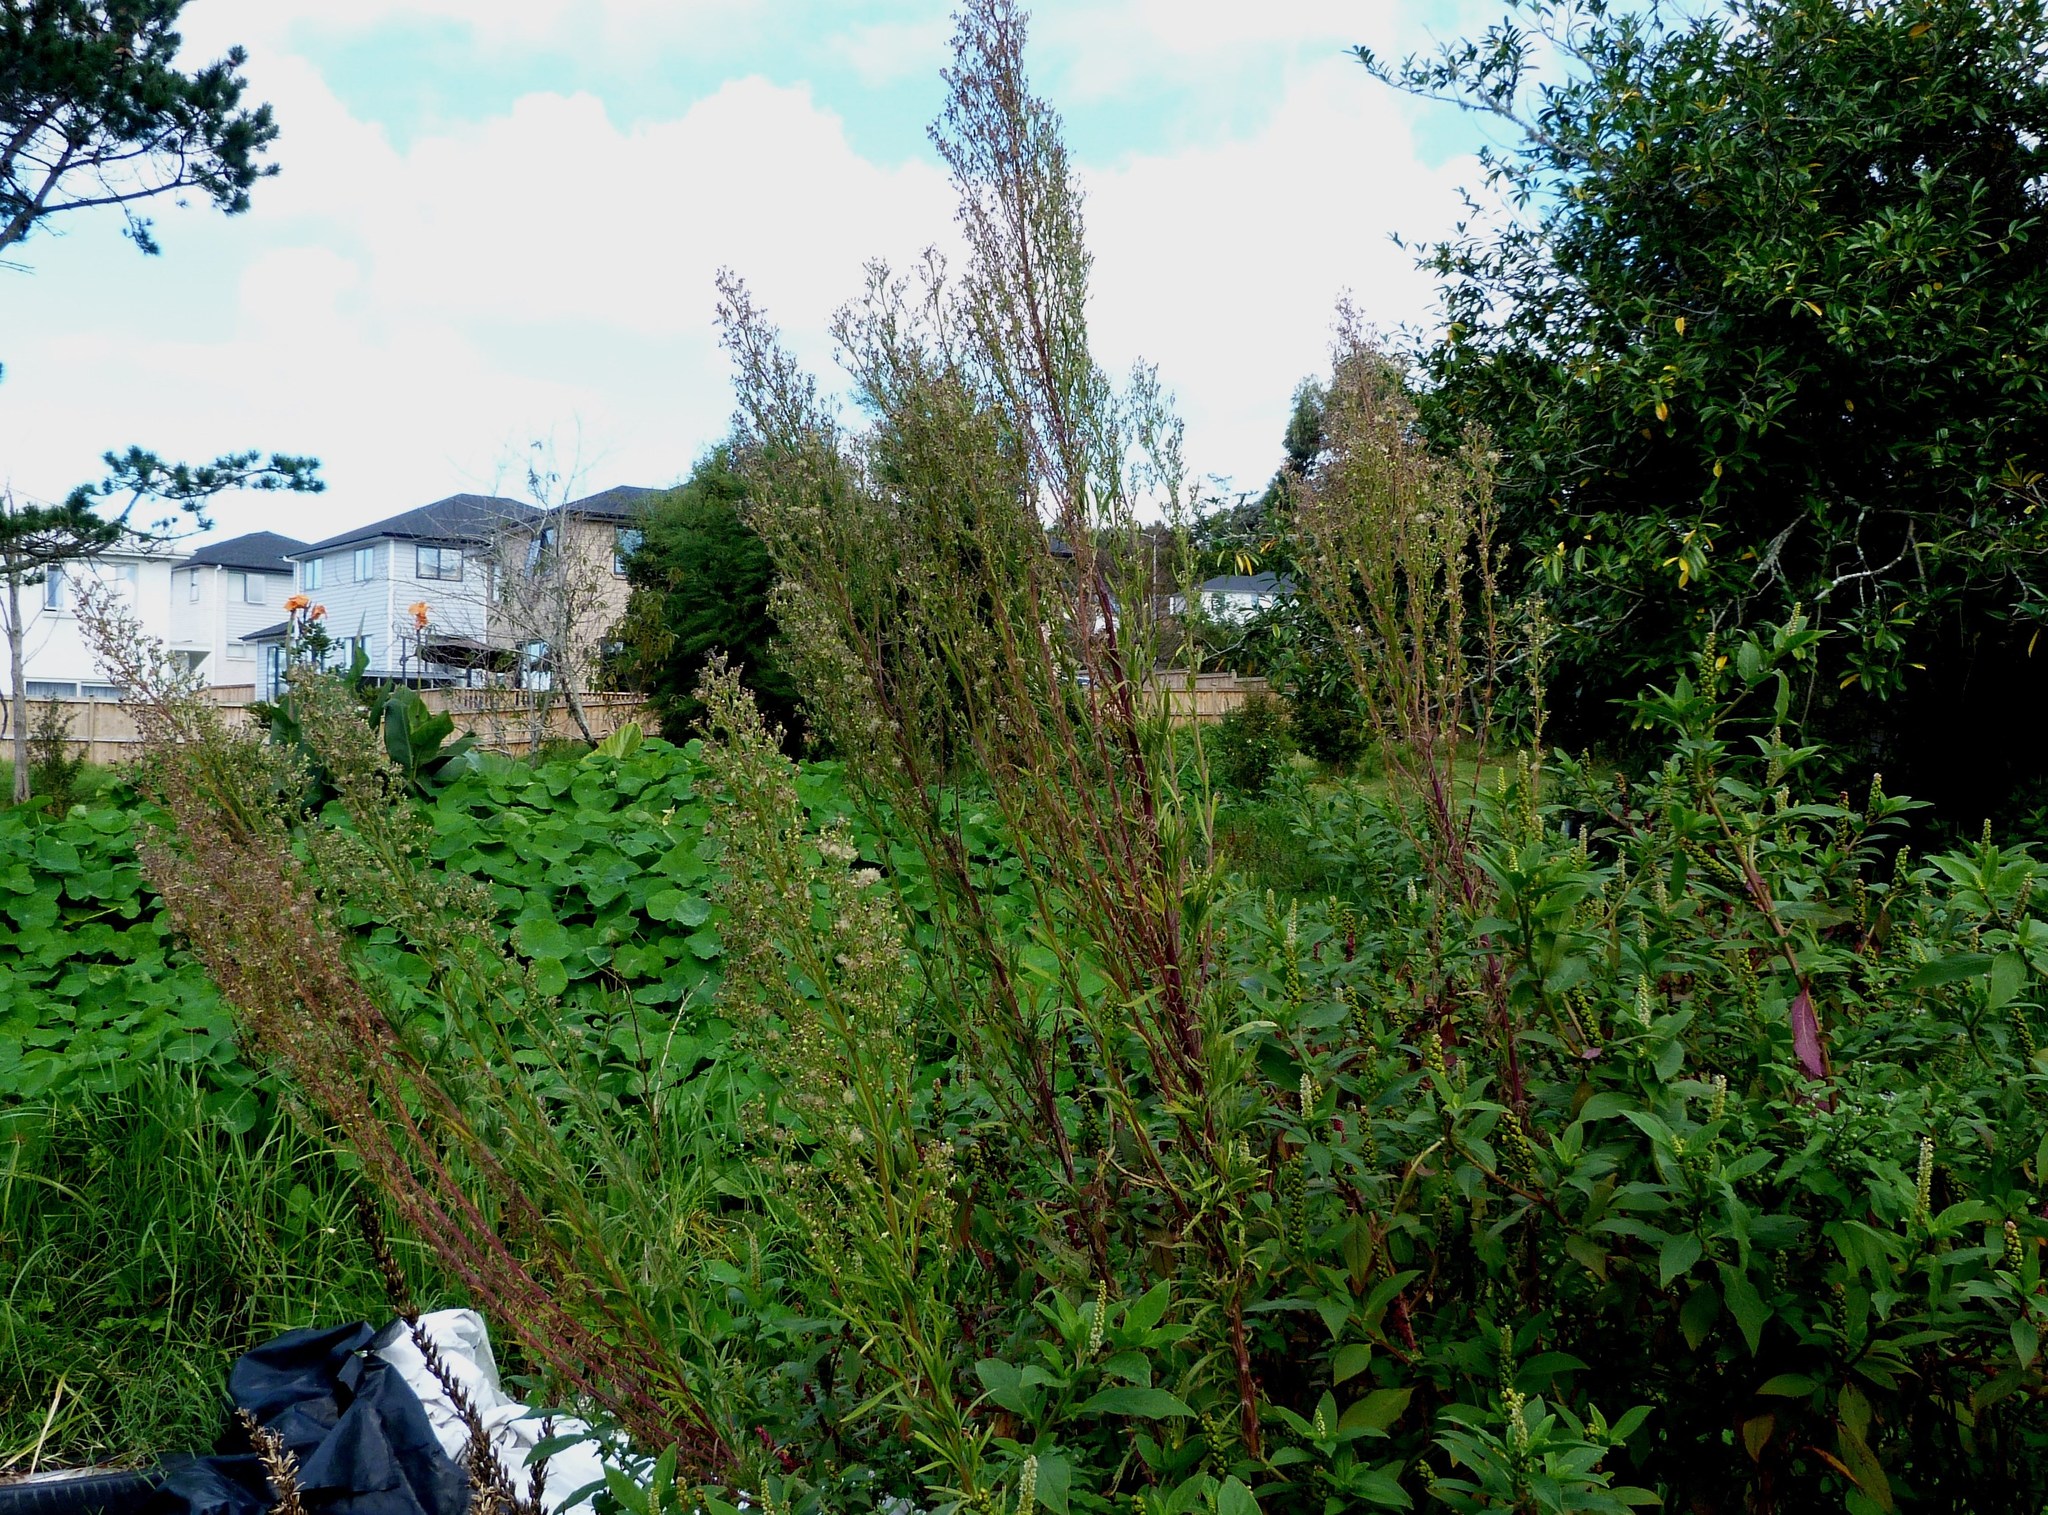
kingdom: Plantae
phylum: Tracheophyta
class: Magnoliopsida
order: Asterales
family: Asteraceae
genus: Erigeron
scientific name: Erigeron sumatrensis
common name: Daisy
